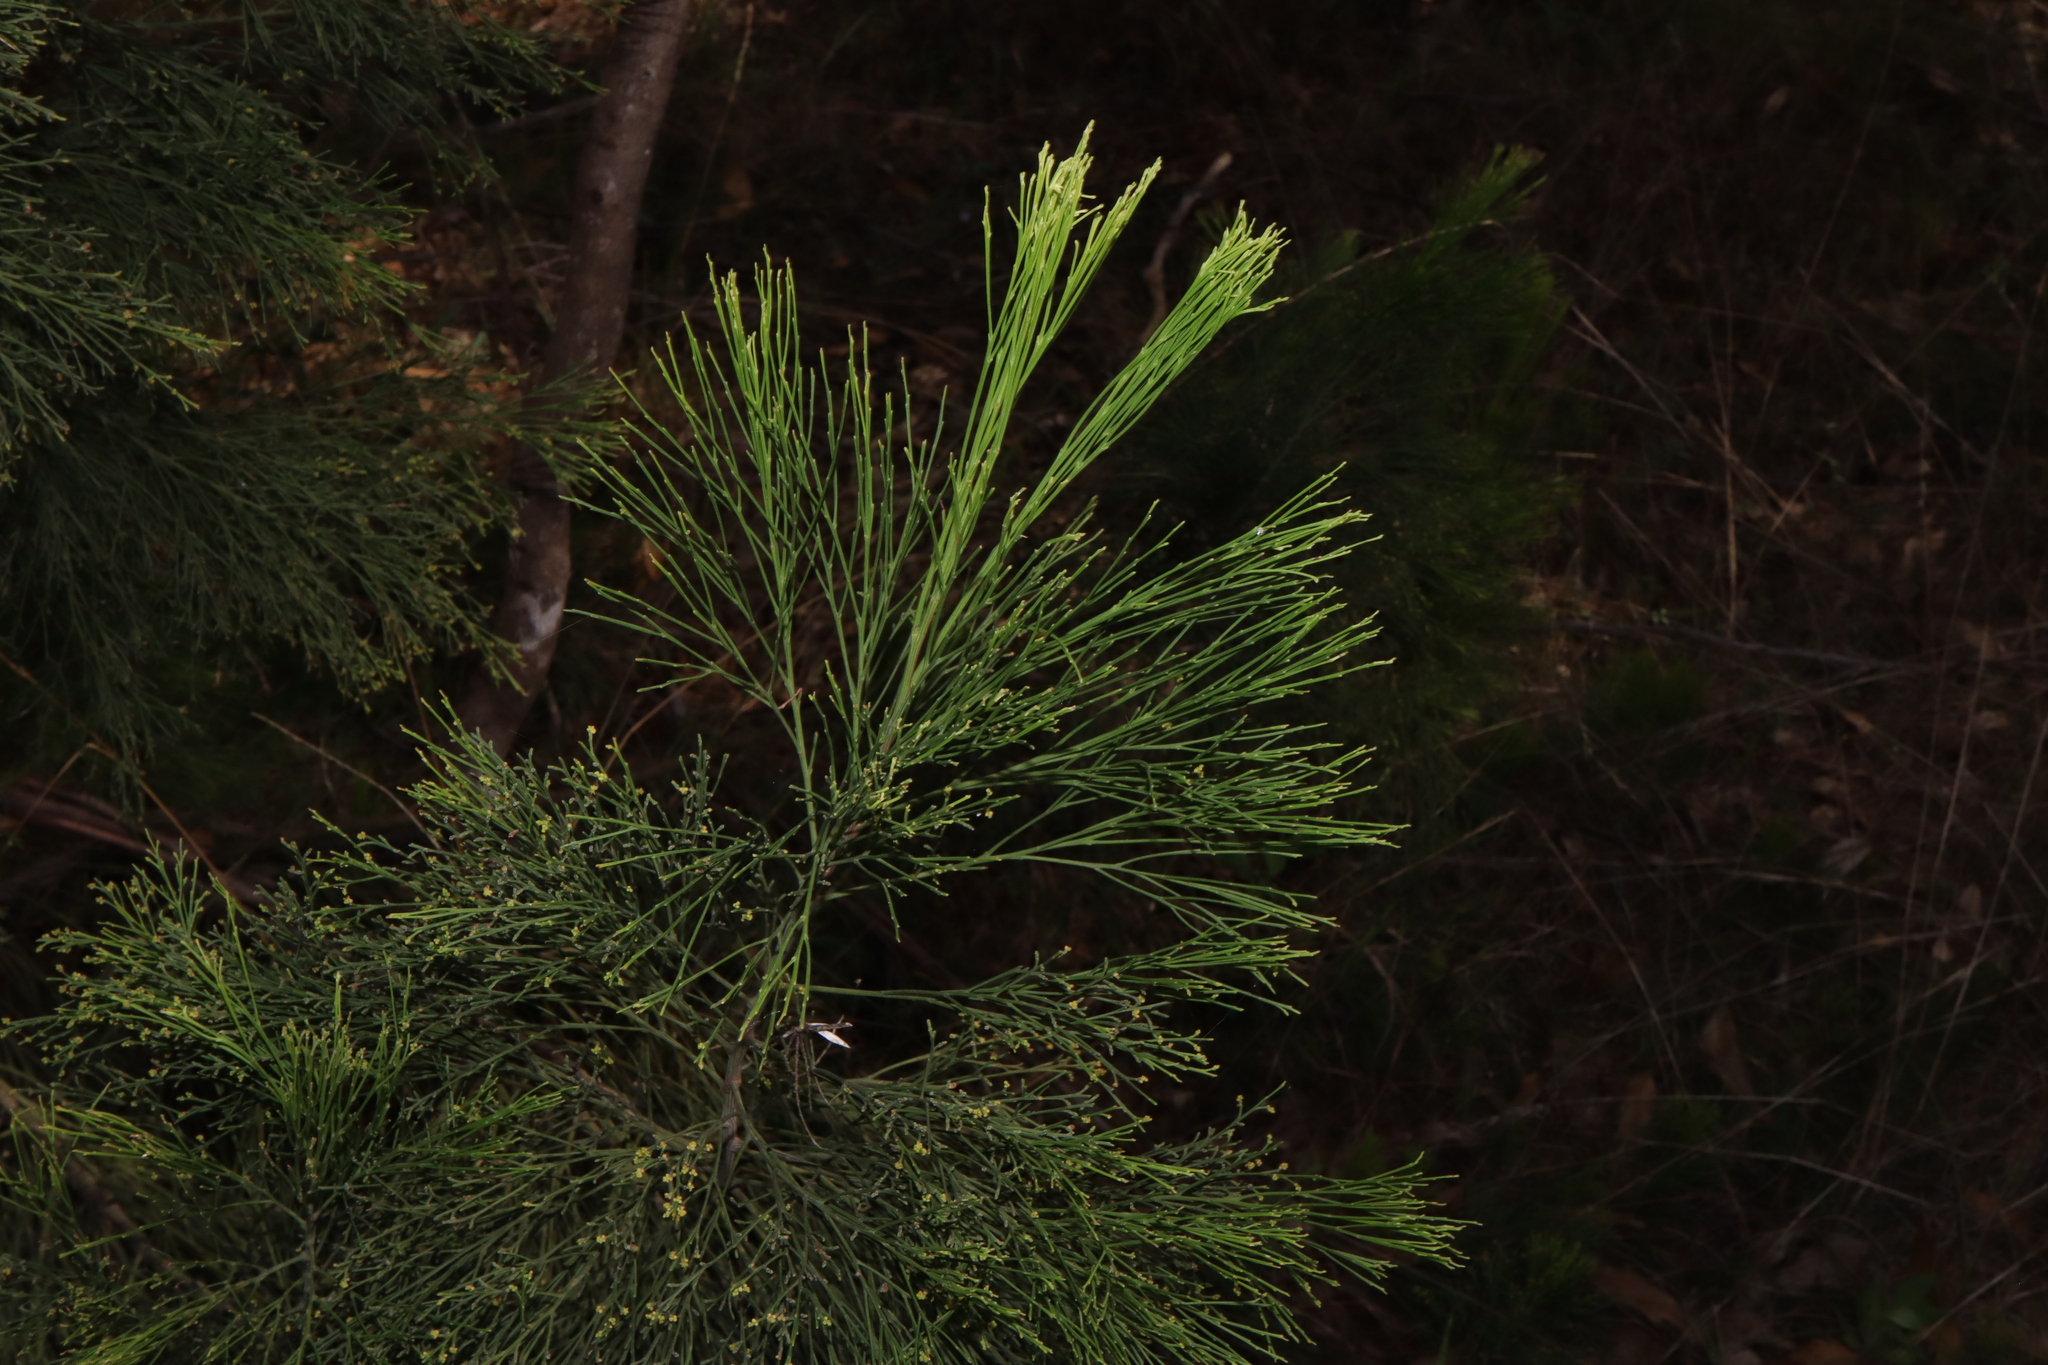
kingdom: Plantae
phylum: Tracheophyta
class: Magnoliopsida
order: Santalales
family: Santalaceae
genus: Exocarpos
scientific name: Exocarpos cupressiformis
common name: Cherry ballart
